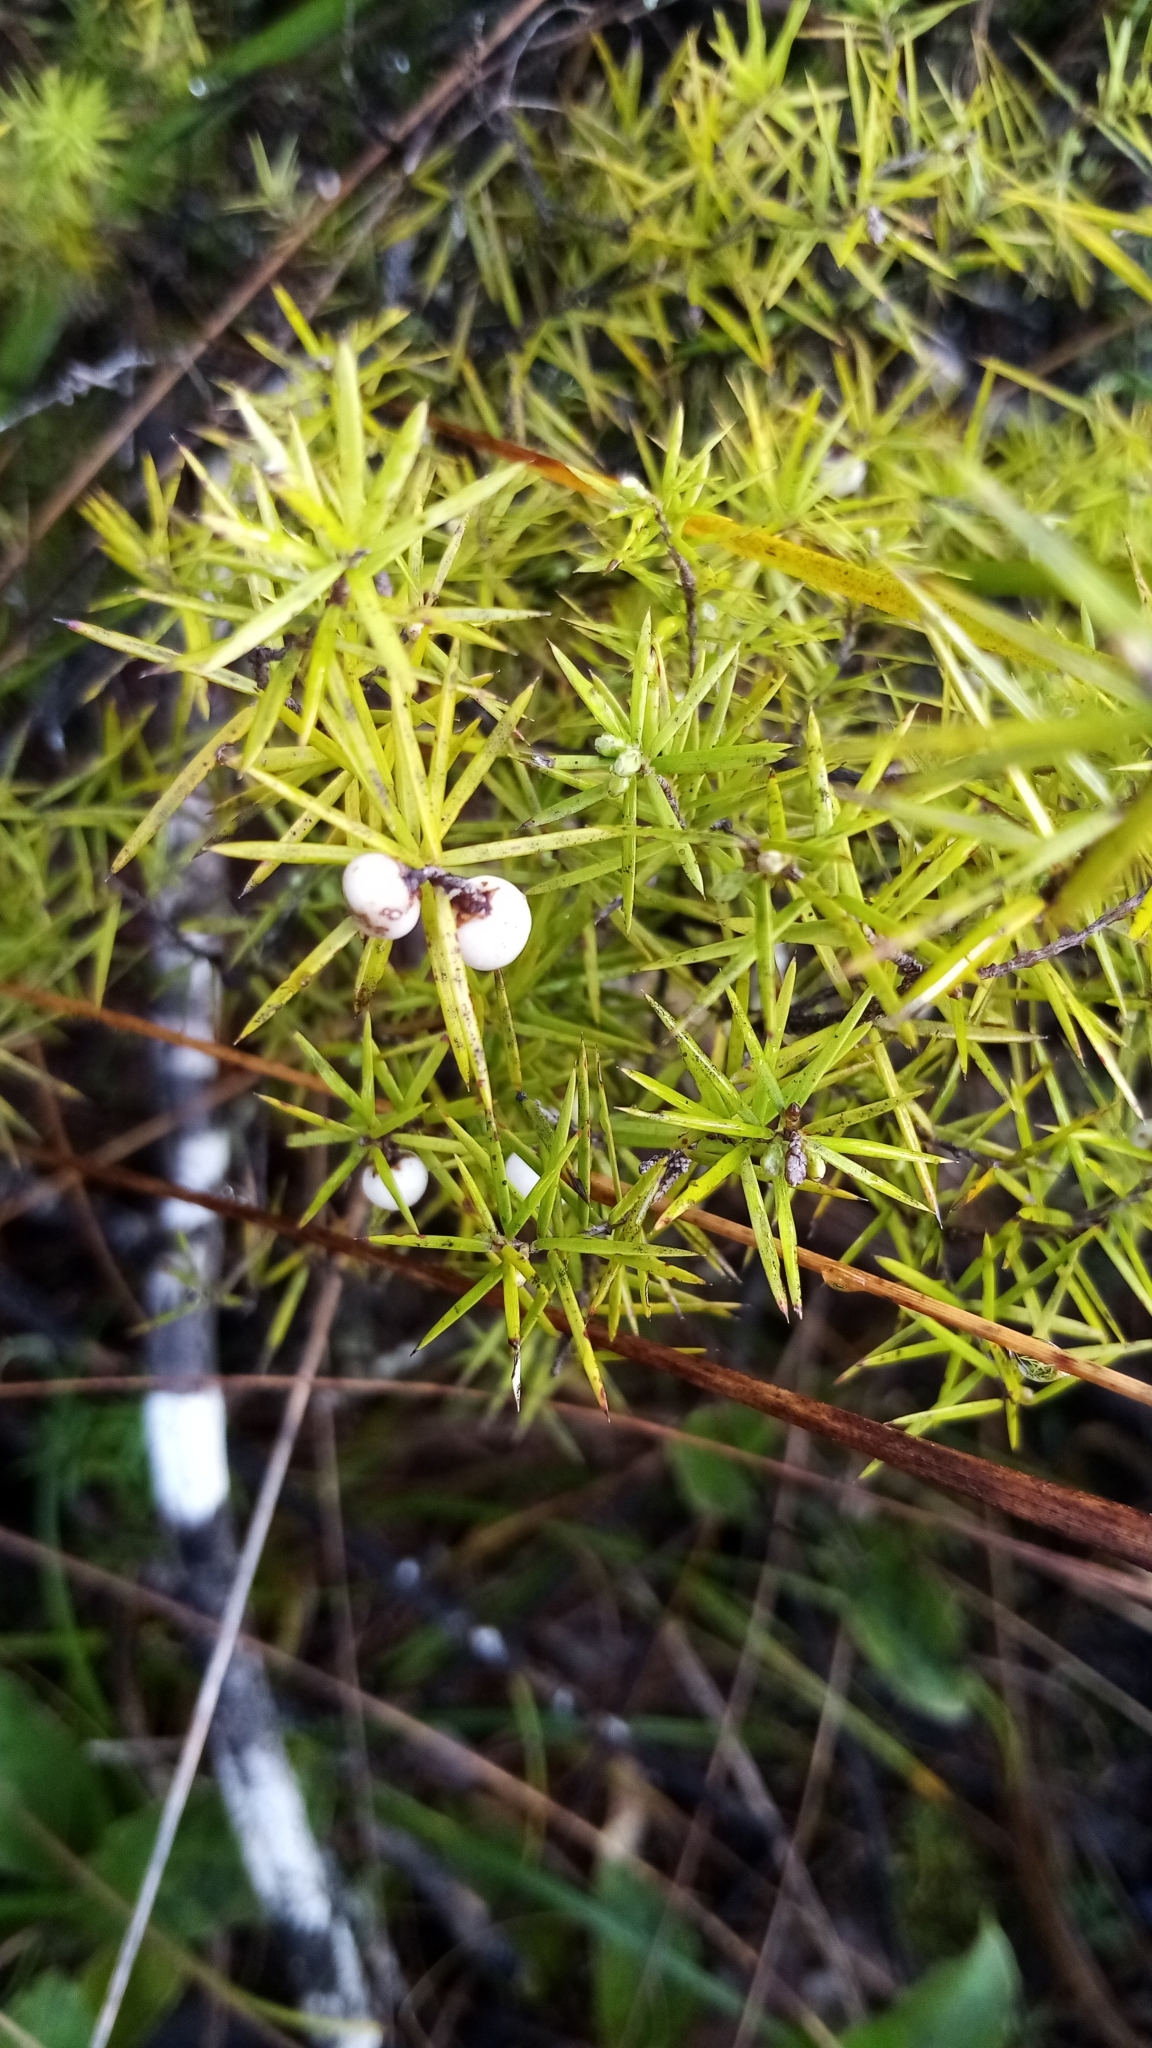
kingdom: Plantae
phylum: Tracheophyta
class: Magnoliopsida
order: Ericales
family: Ericaceae
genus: Leptecophylla
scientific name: Leptecophylla juniperina
